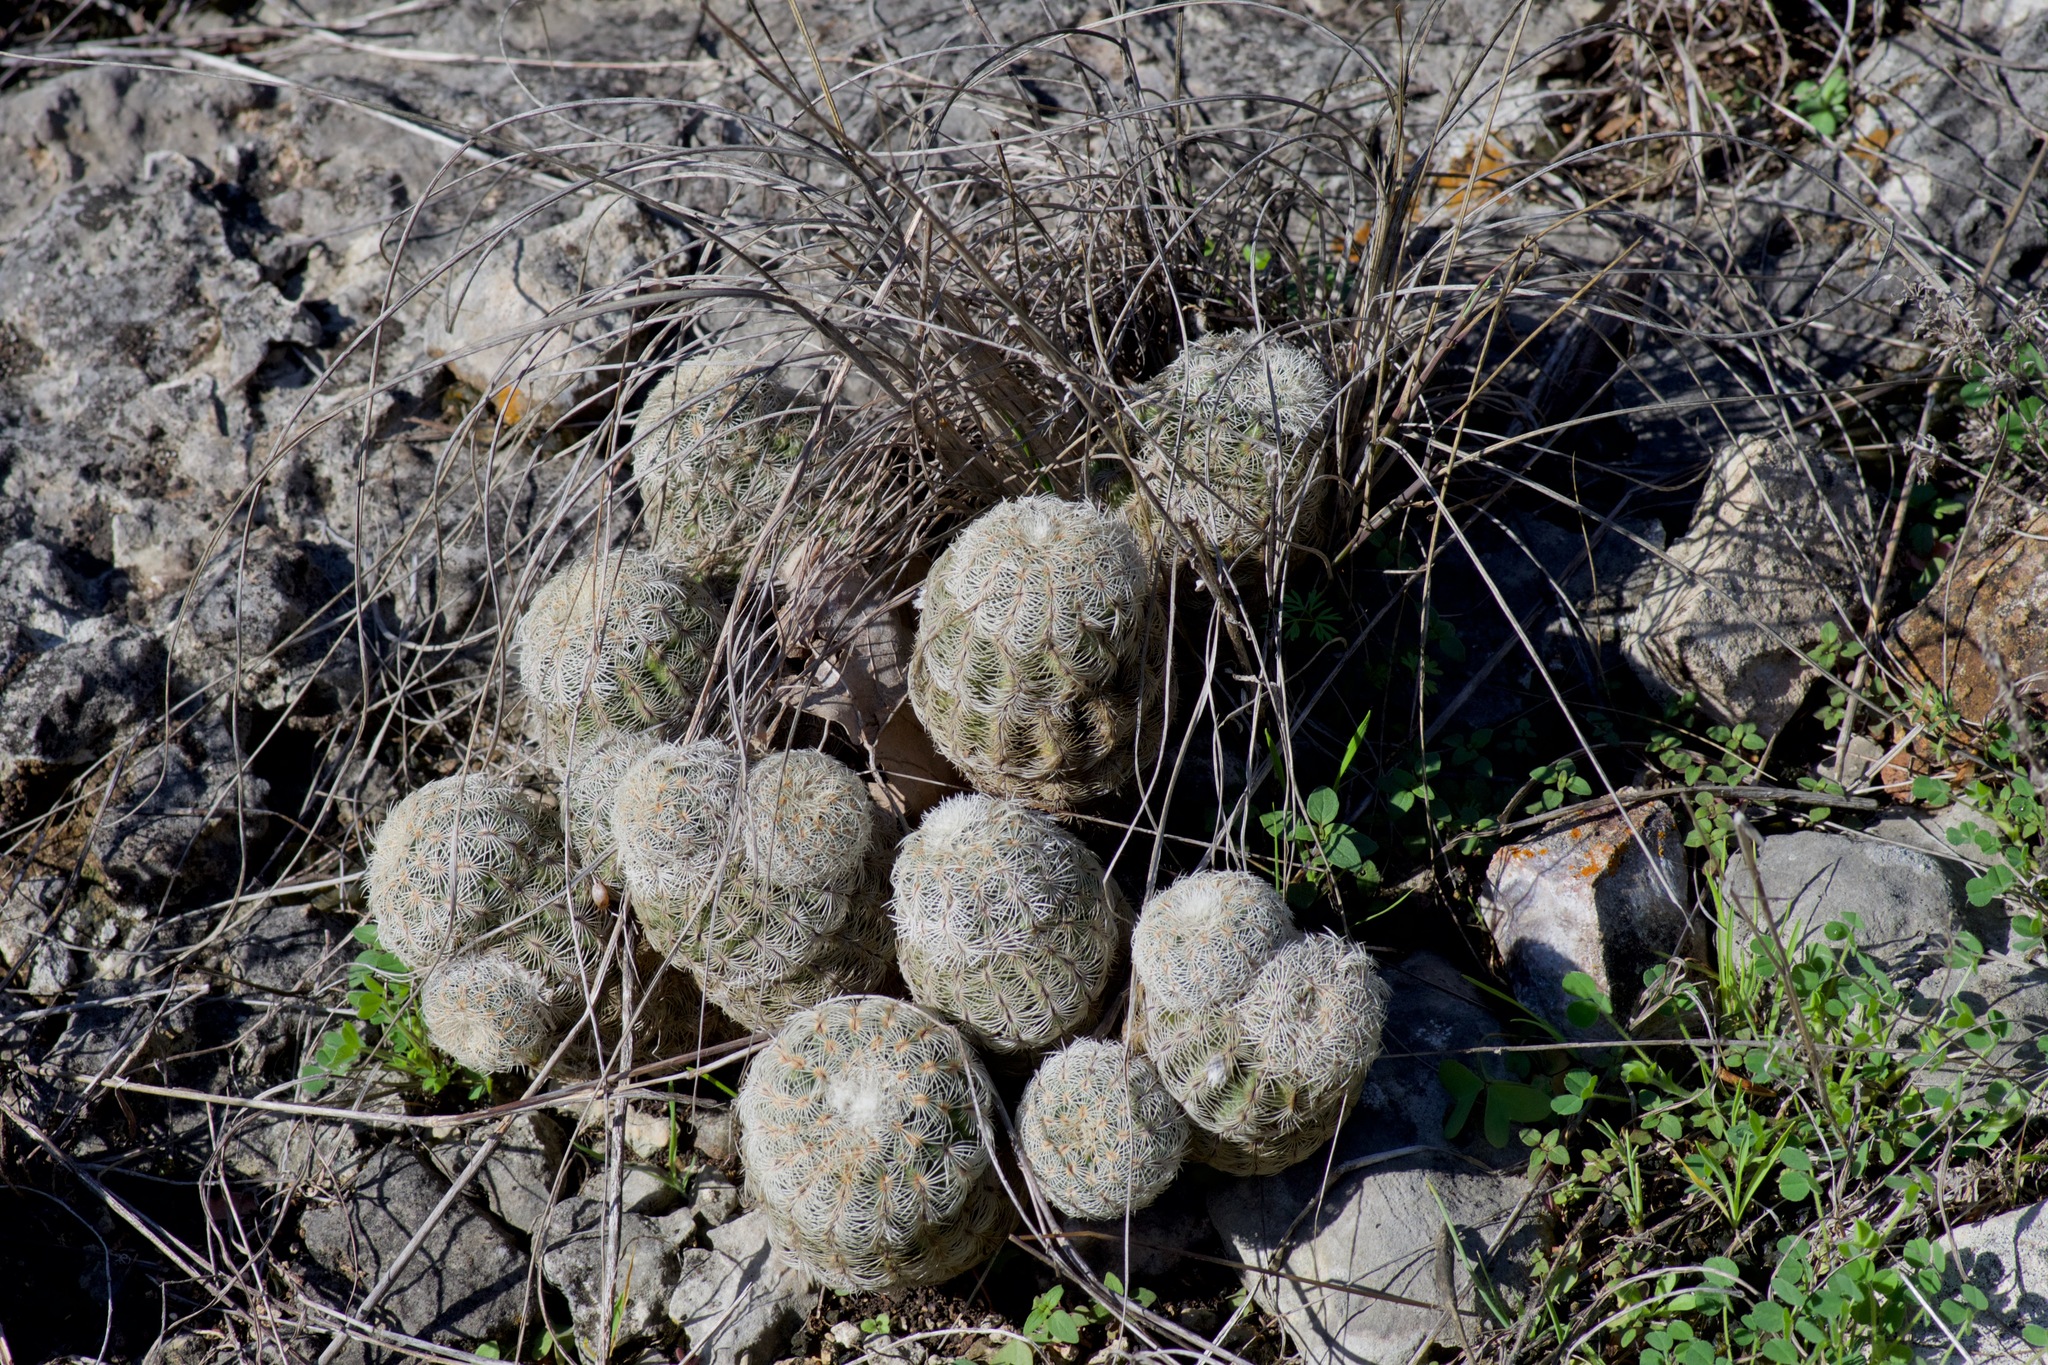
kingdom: Plantae
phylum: Tracheophyta
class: Magnoliopsida
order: Caryophyllales
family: Cactaceae
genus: Echinocereus
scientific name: Echinocereus reichenbachii
